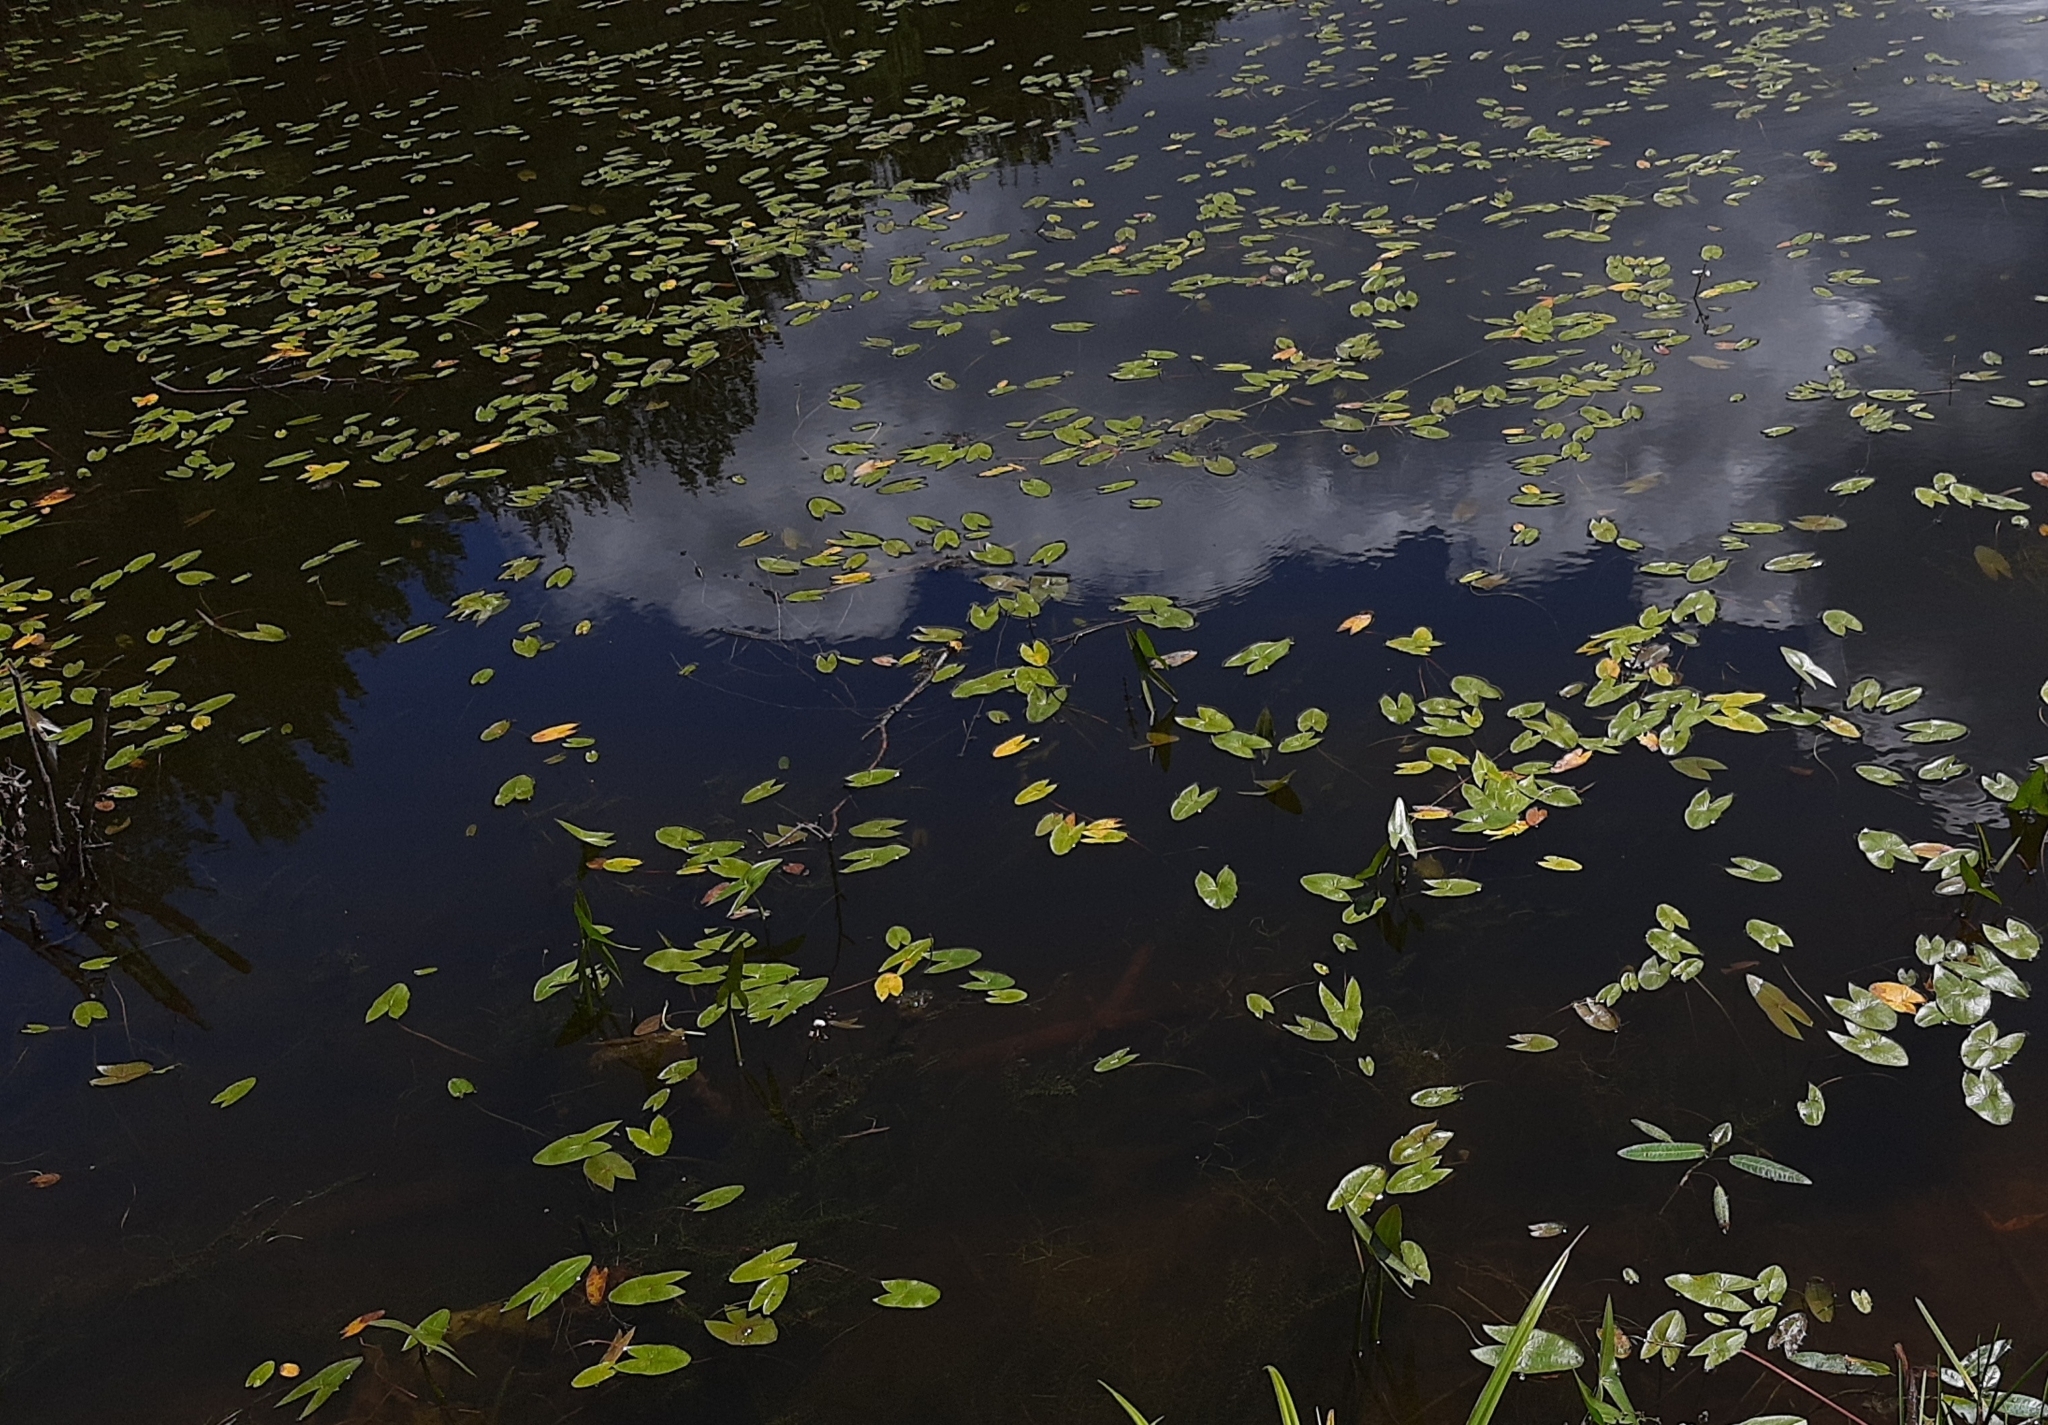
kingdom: Plantae
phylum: Tracheophyta
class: Liliopsida
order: Alismatales
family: Alismataceae
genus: Sagittaria
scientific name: Sagittaria sagittifolia
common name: Arrowhead
